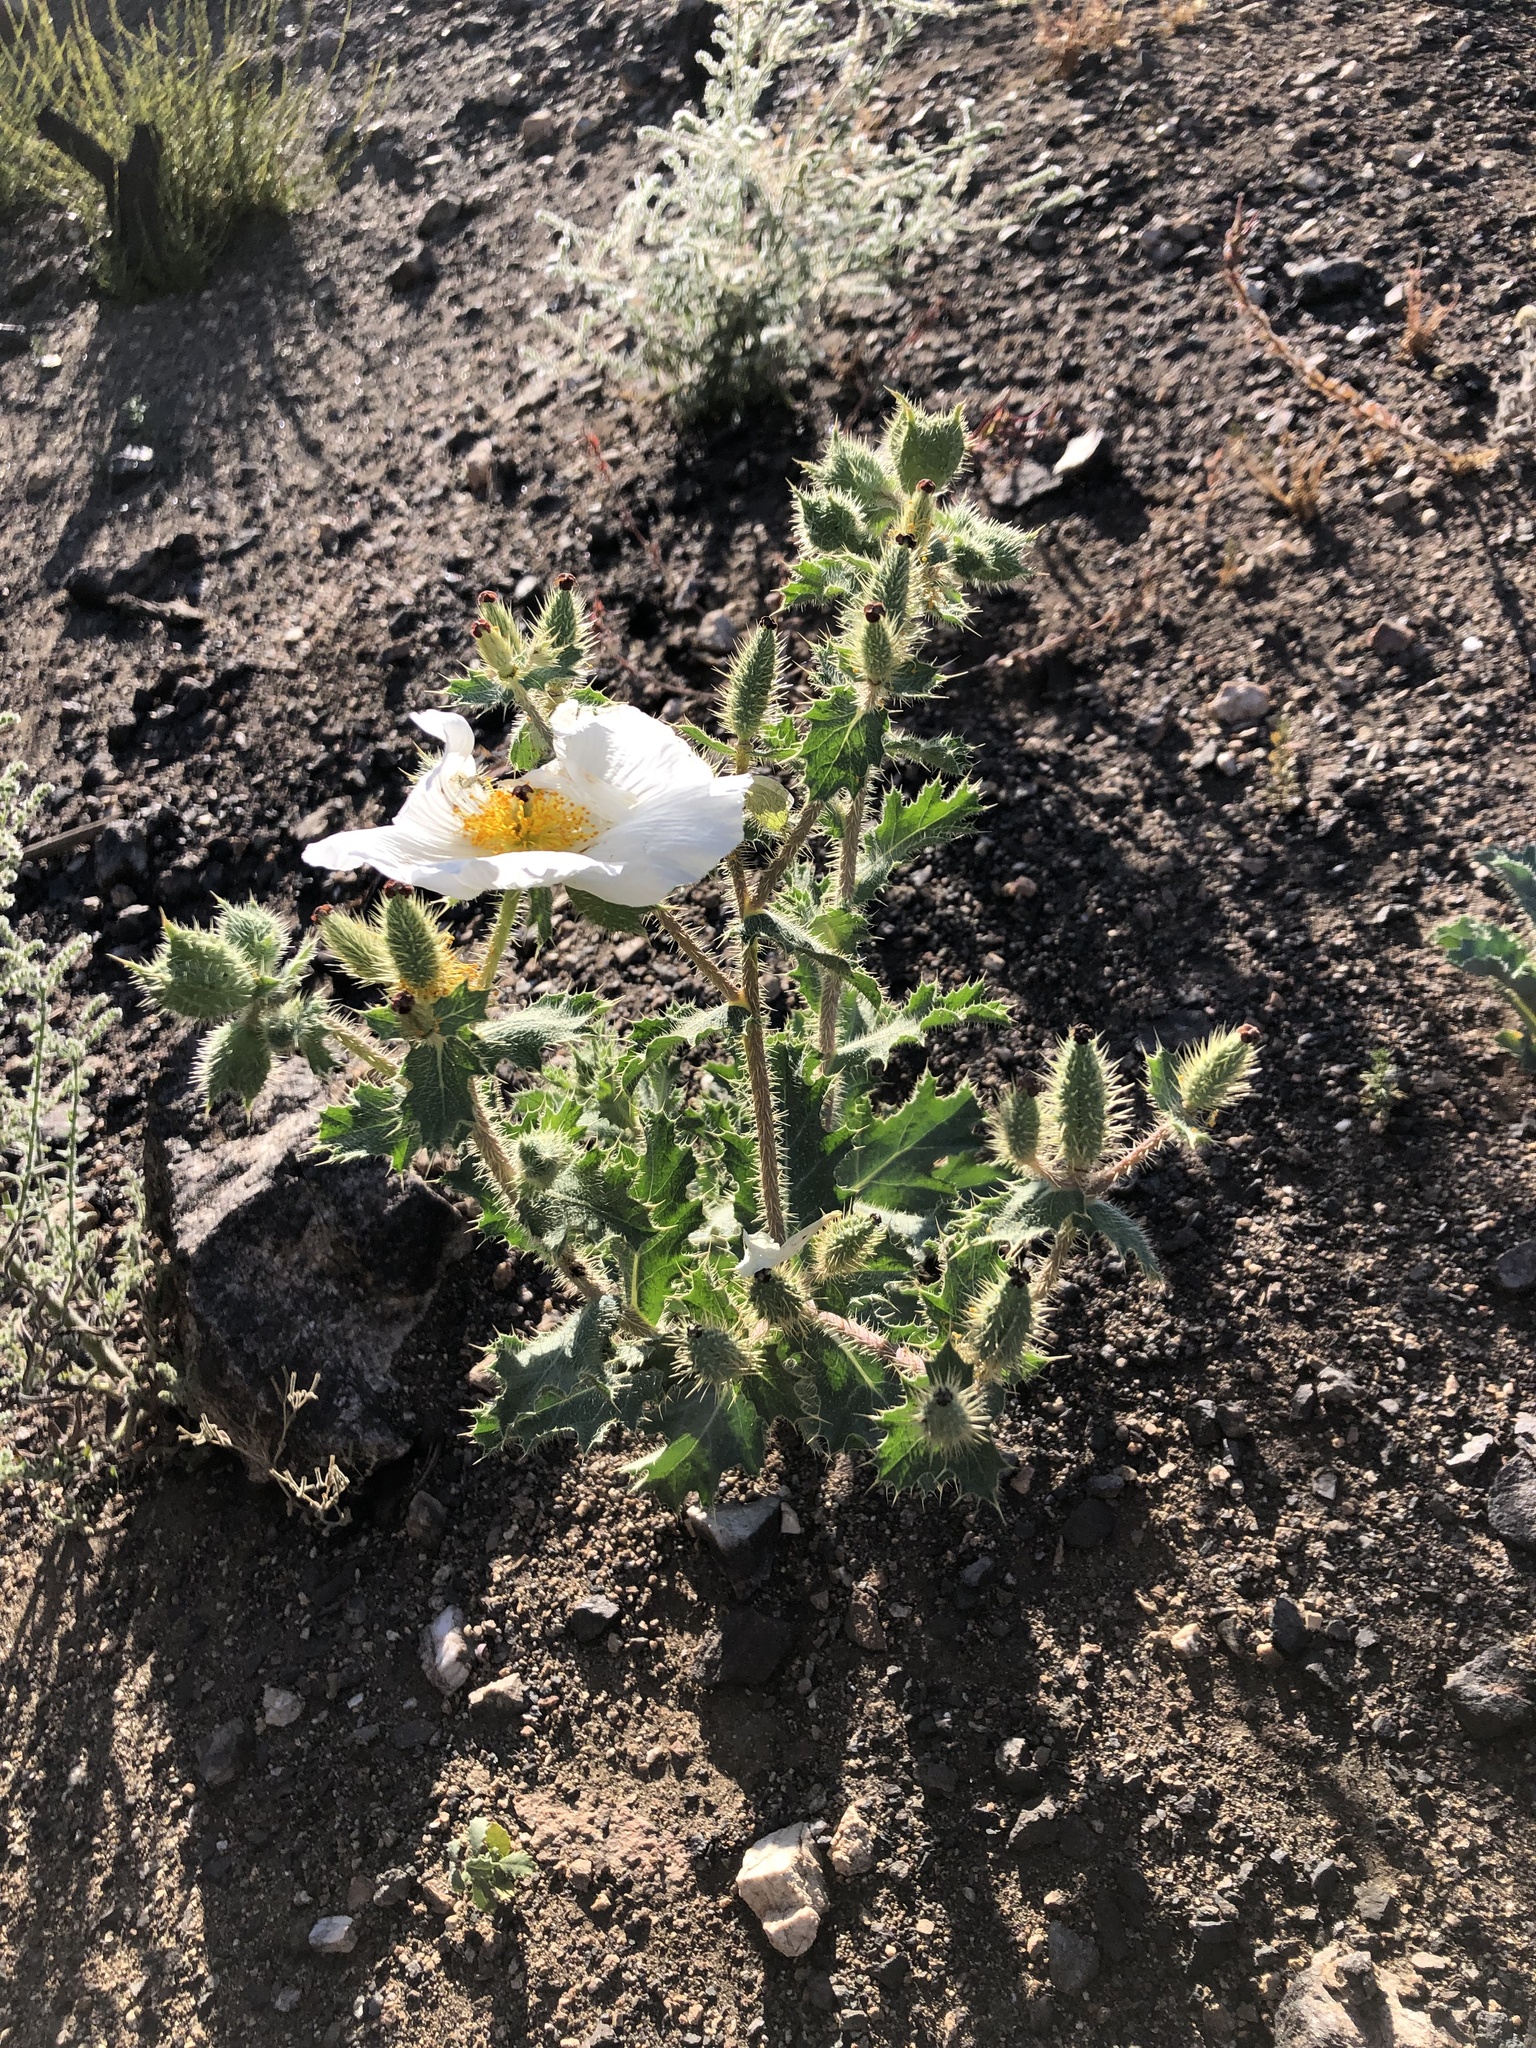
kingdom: Plantae
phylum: Tracheophyta
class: Magnoliopsida
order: Ranunculales
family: Papaveraceae
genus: Argemone
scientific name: Argemone munita
